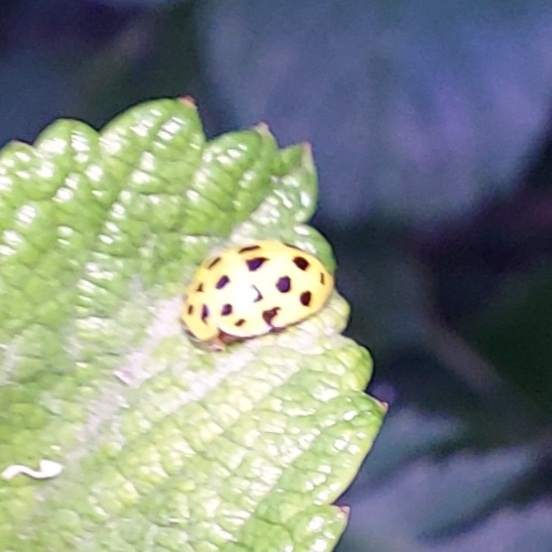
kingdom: Animalia
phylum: Arthropoda
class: Insecta
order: Coleoptera
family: Coccinellidae
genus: Psyllobora
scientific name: Psyllobora vigintiduopunctata
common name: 22-spot ladybird
